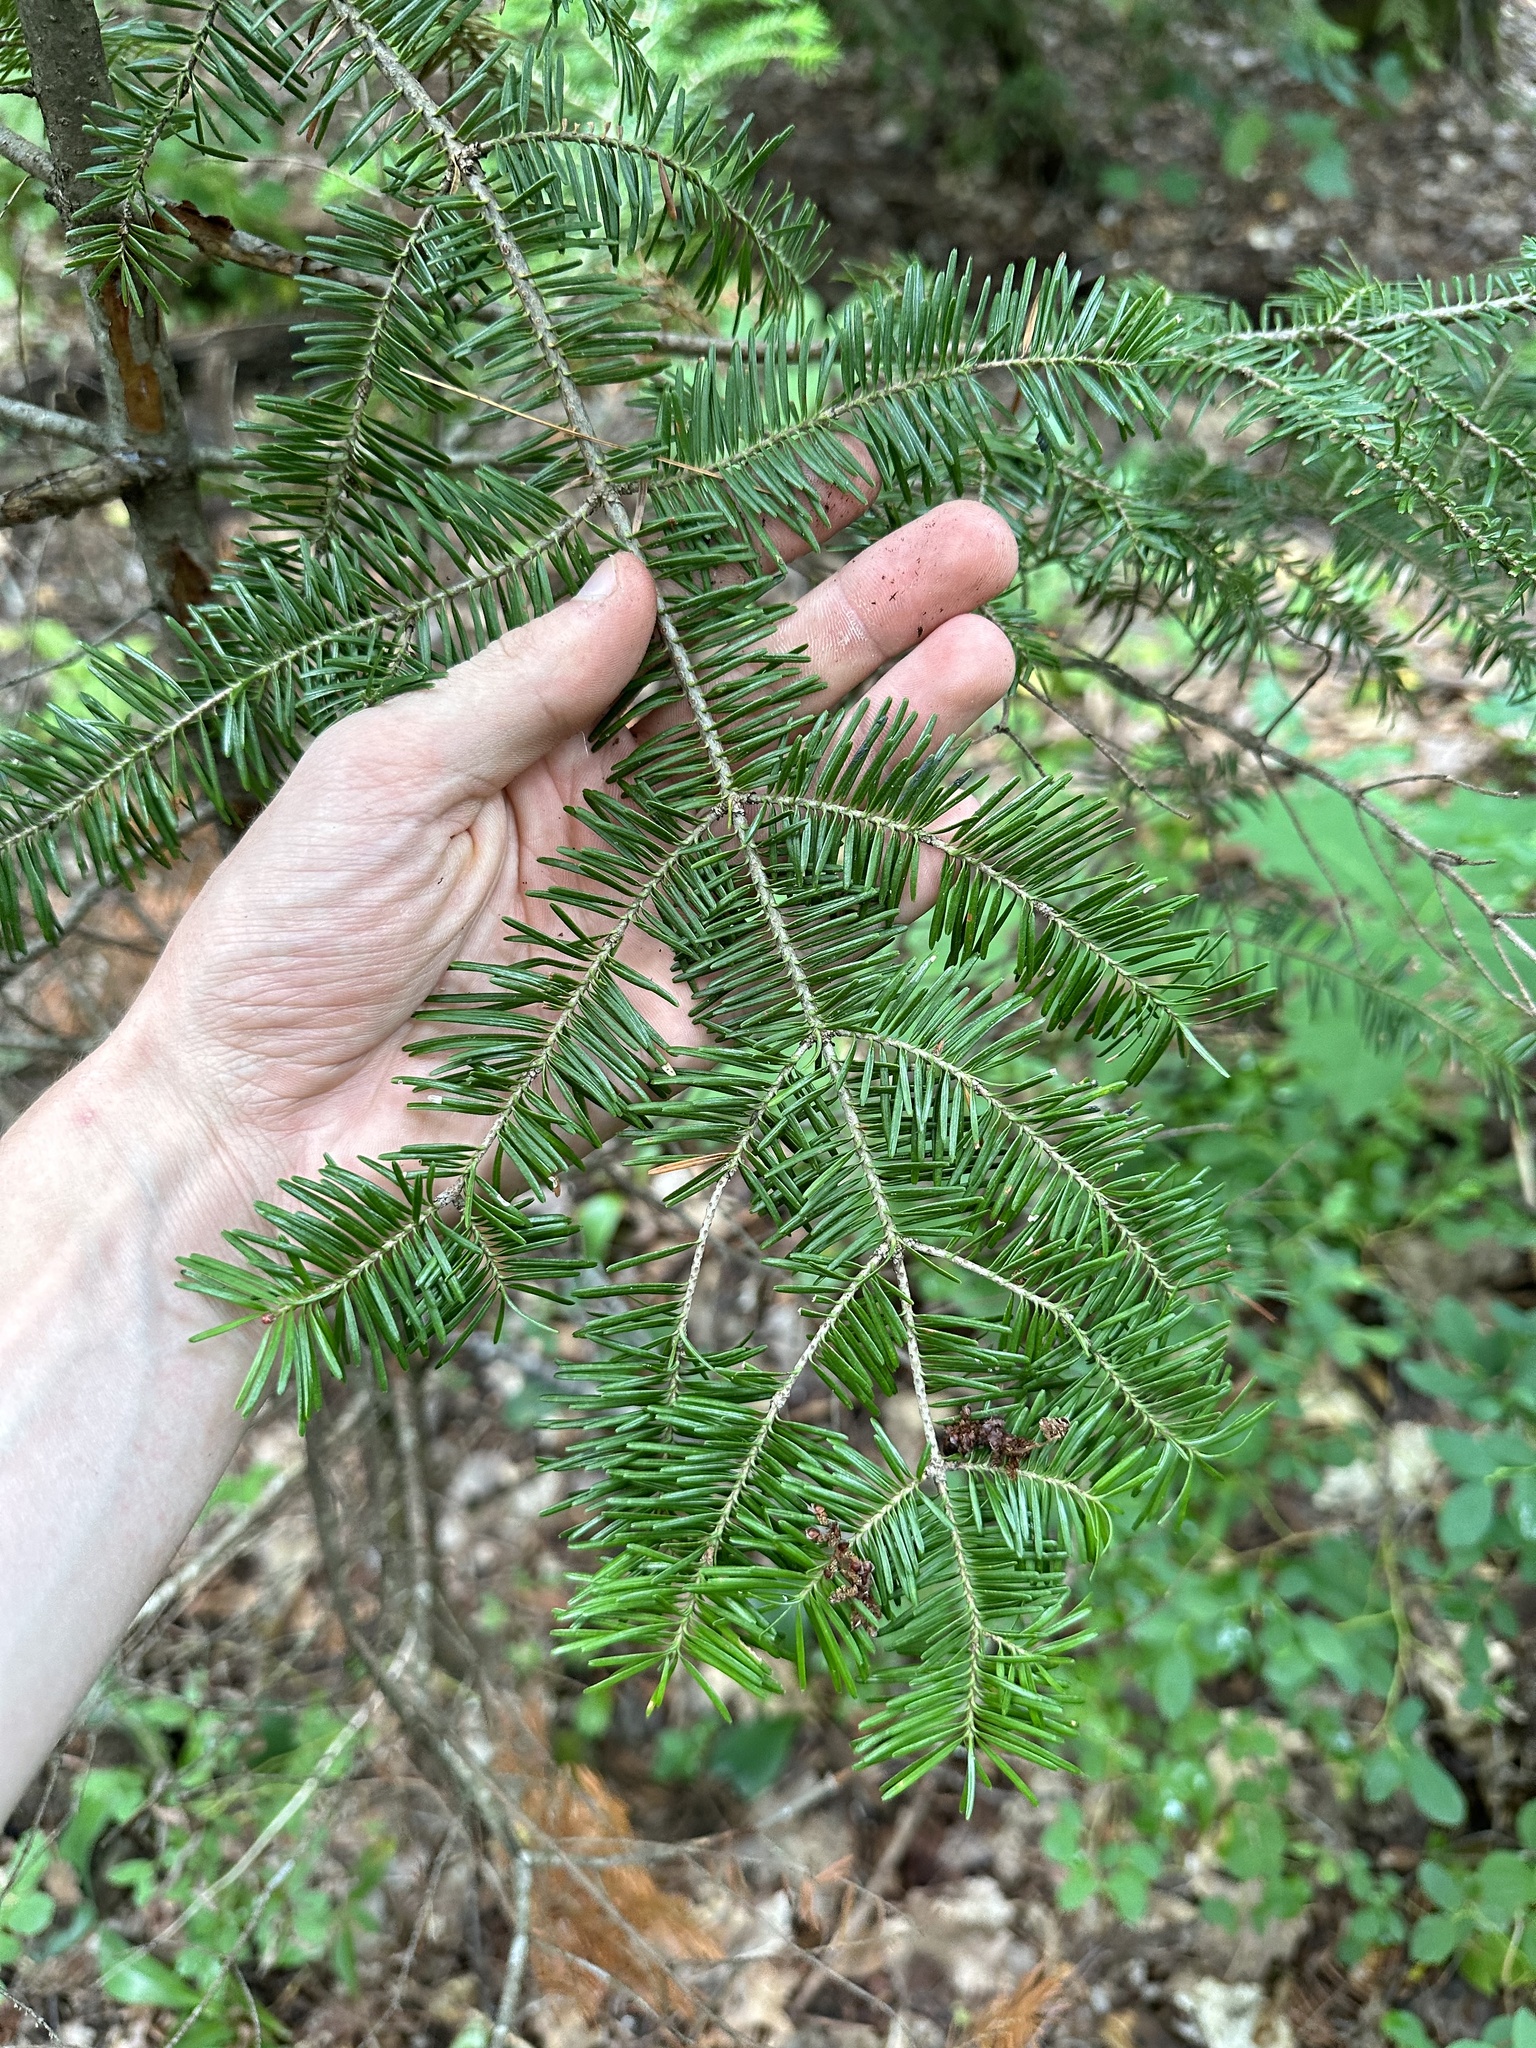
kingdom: Plantae
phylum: Tracheophyta
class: Pinopsida
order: Pinales
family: Pinaceae
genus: Abies
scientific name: Abies balsamea
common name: Balsam fir
